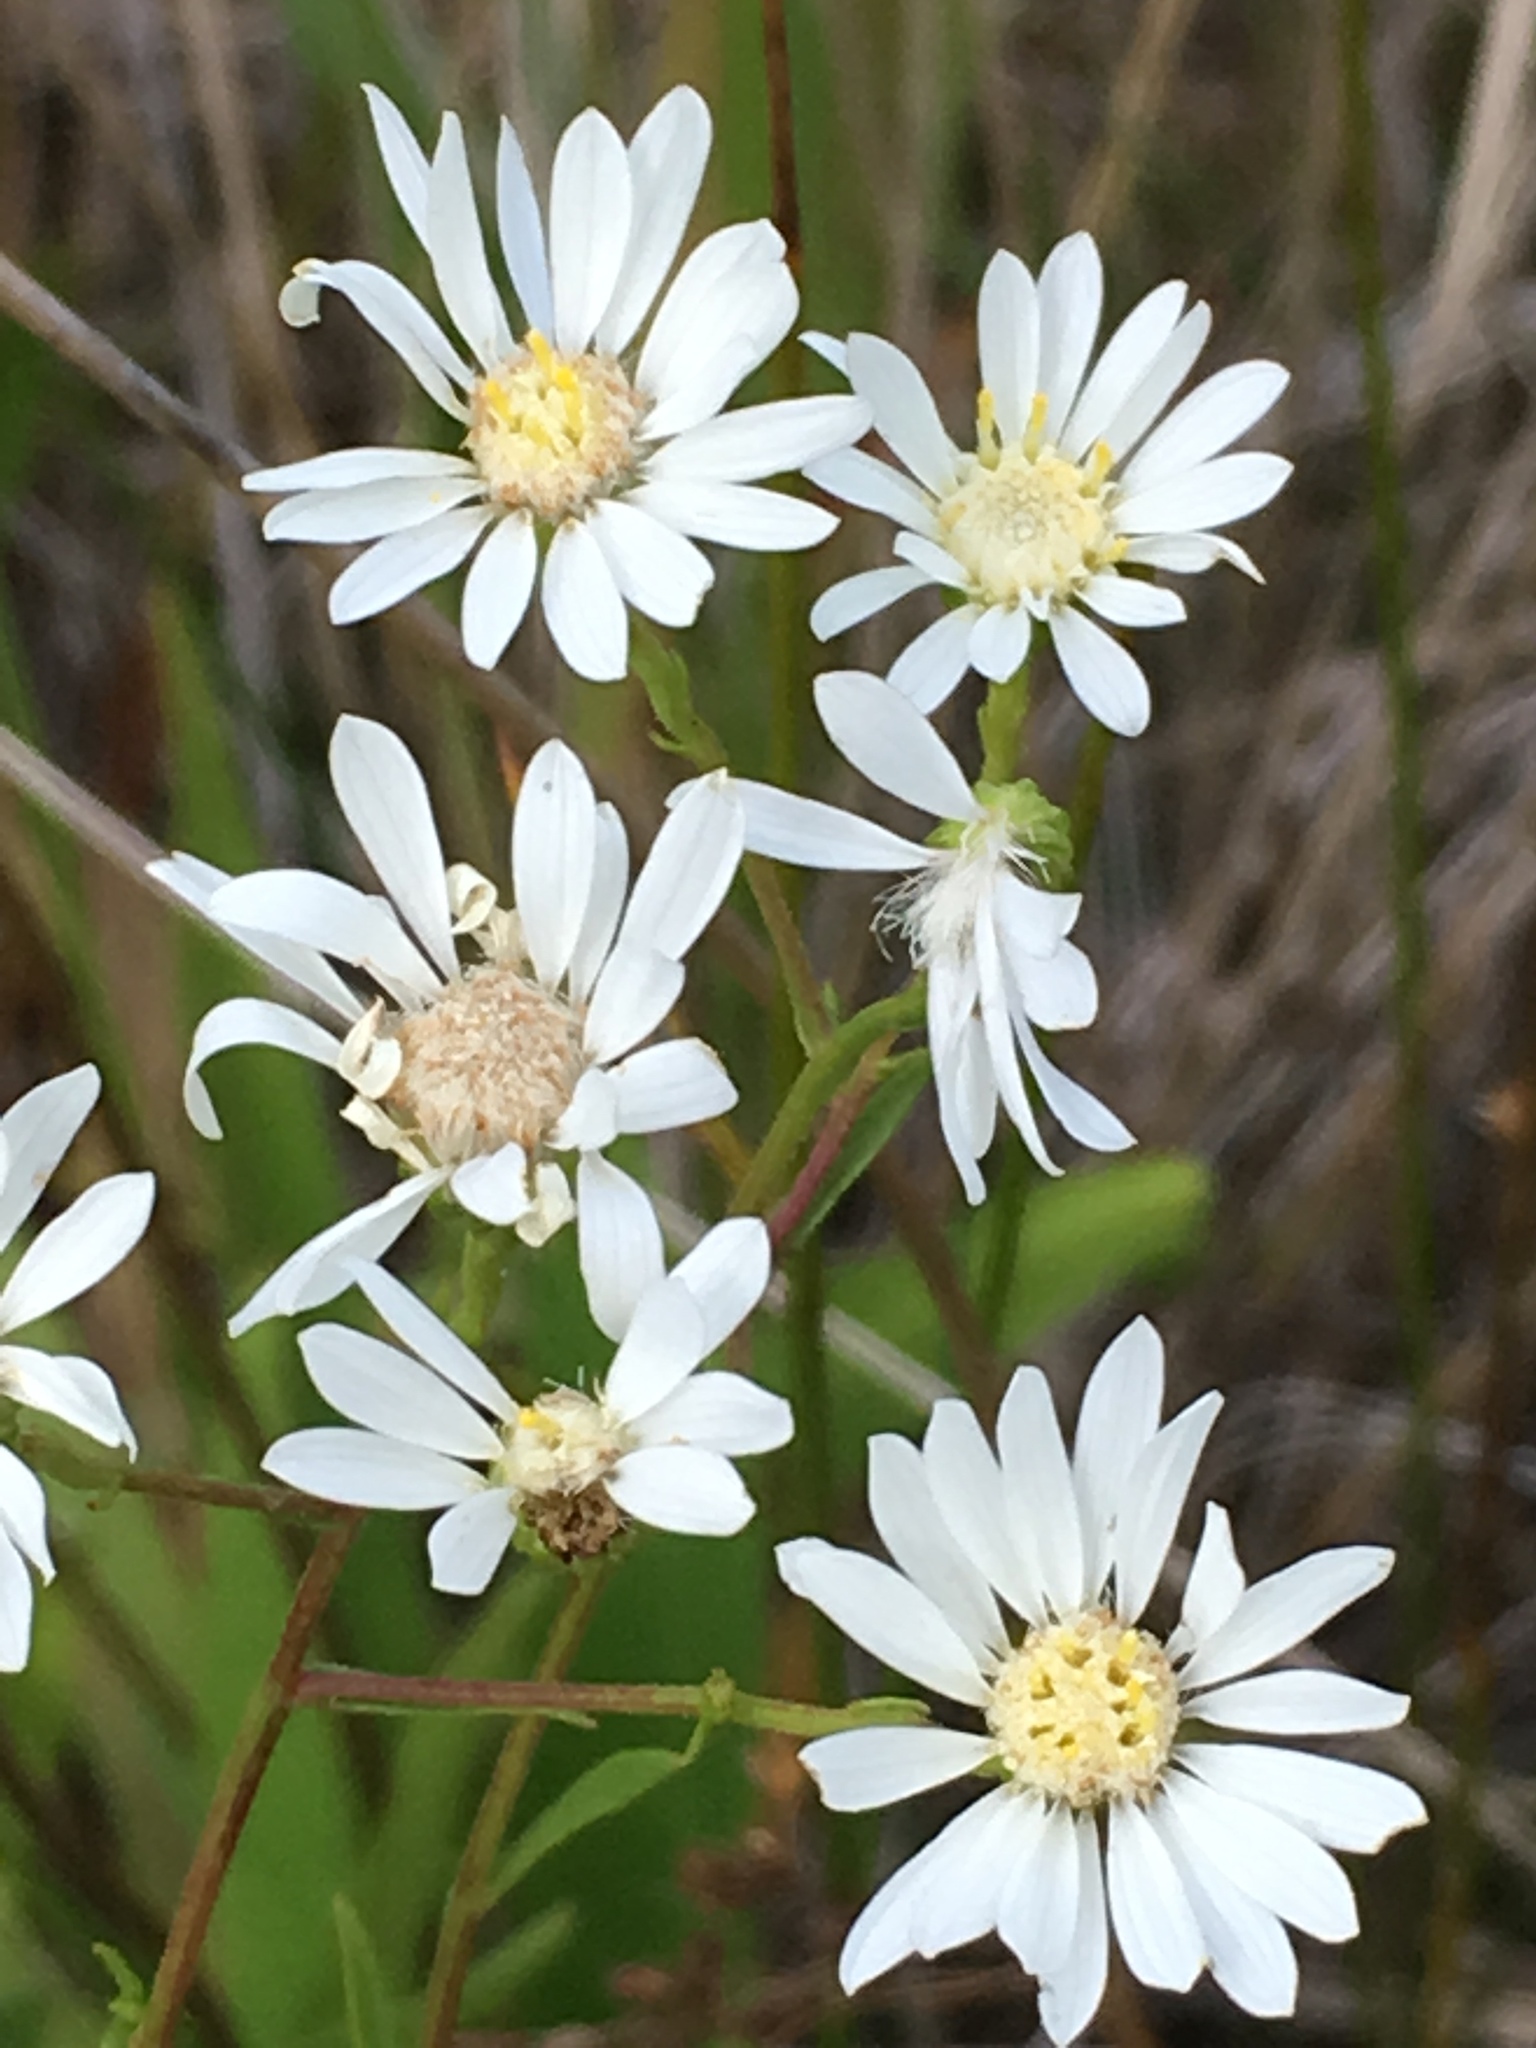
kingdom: Plantae
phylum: Tracheophyta
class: Magnoliopsida
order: Asterales
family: Asteraceae
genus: Solidago
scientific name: Solidago ptarmicoides
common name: White flat-top goldenrod
